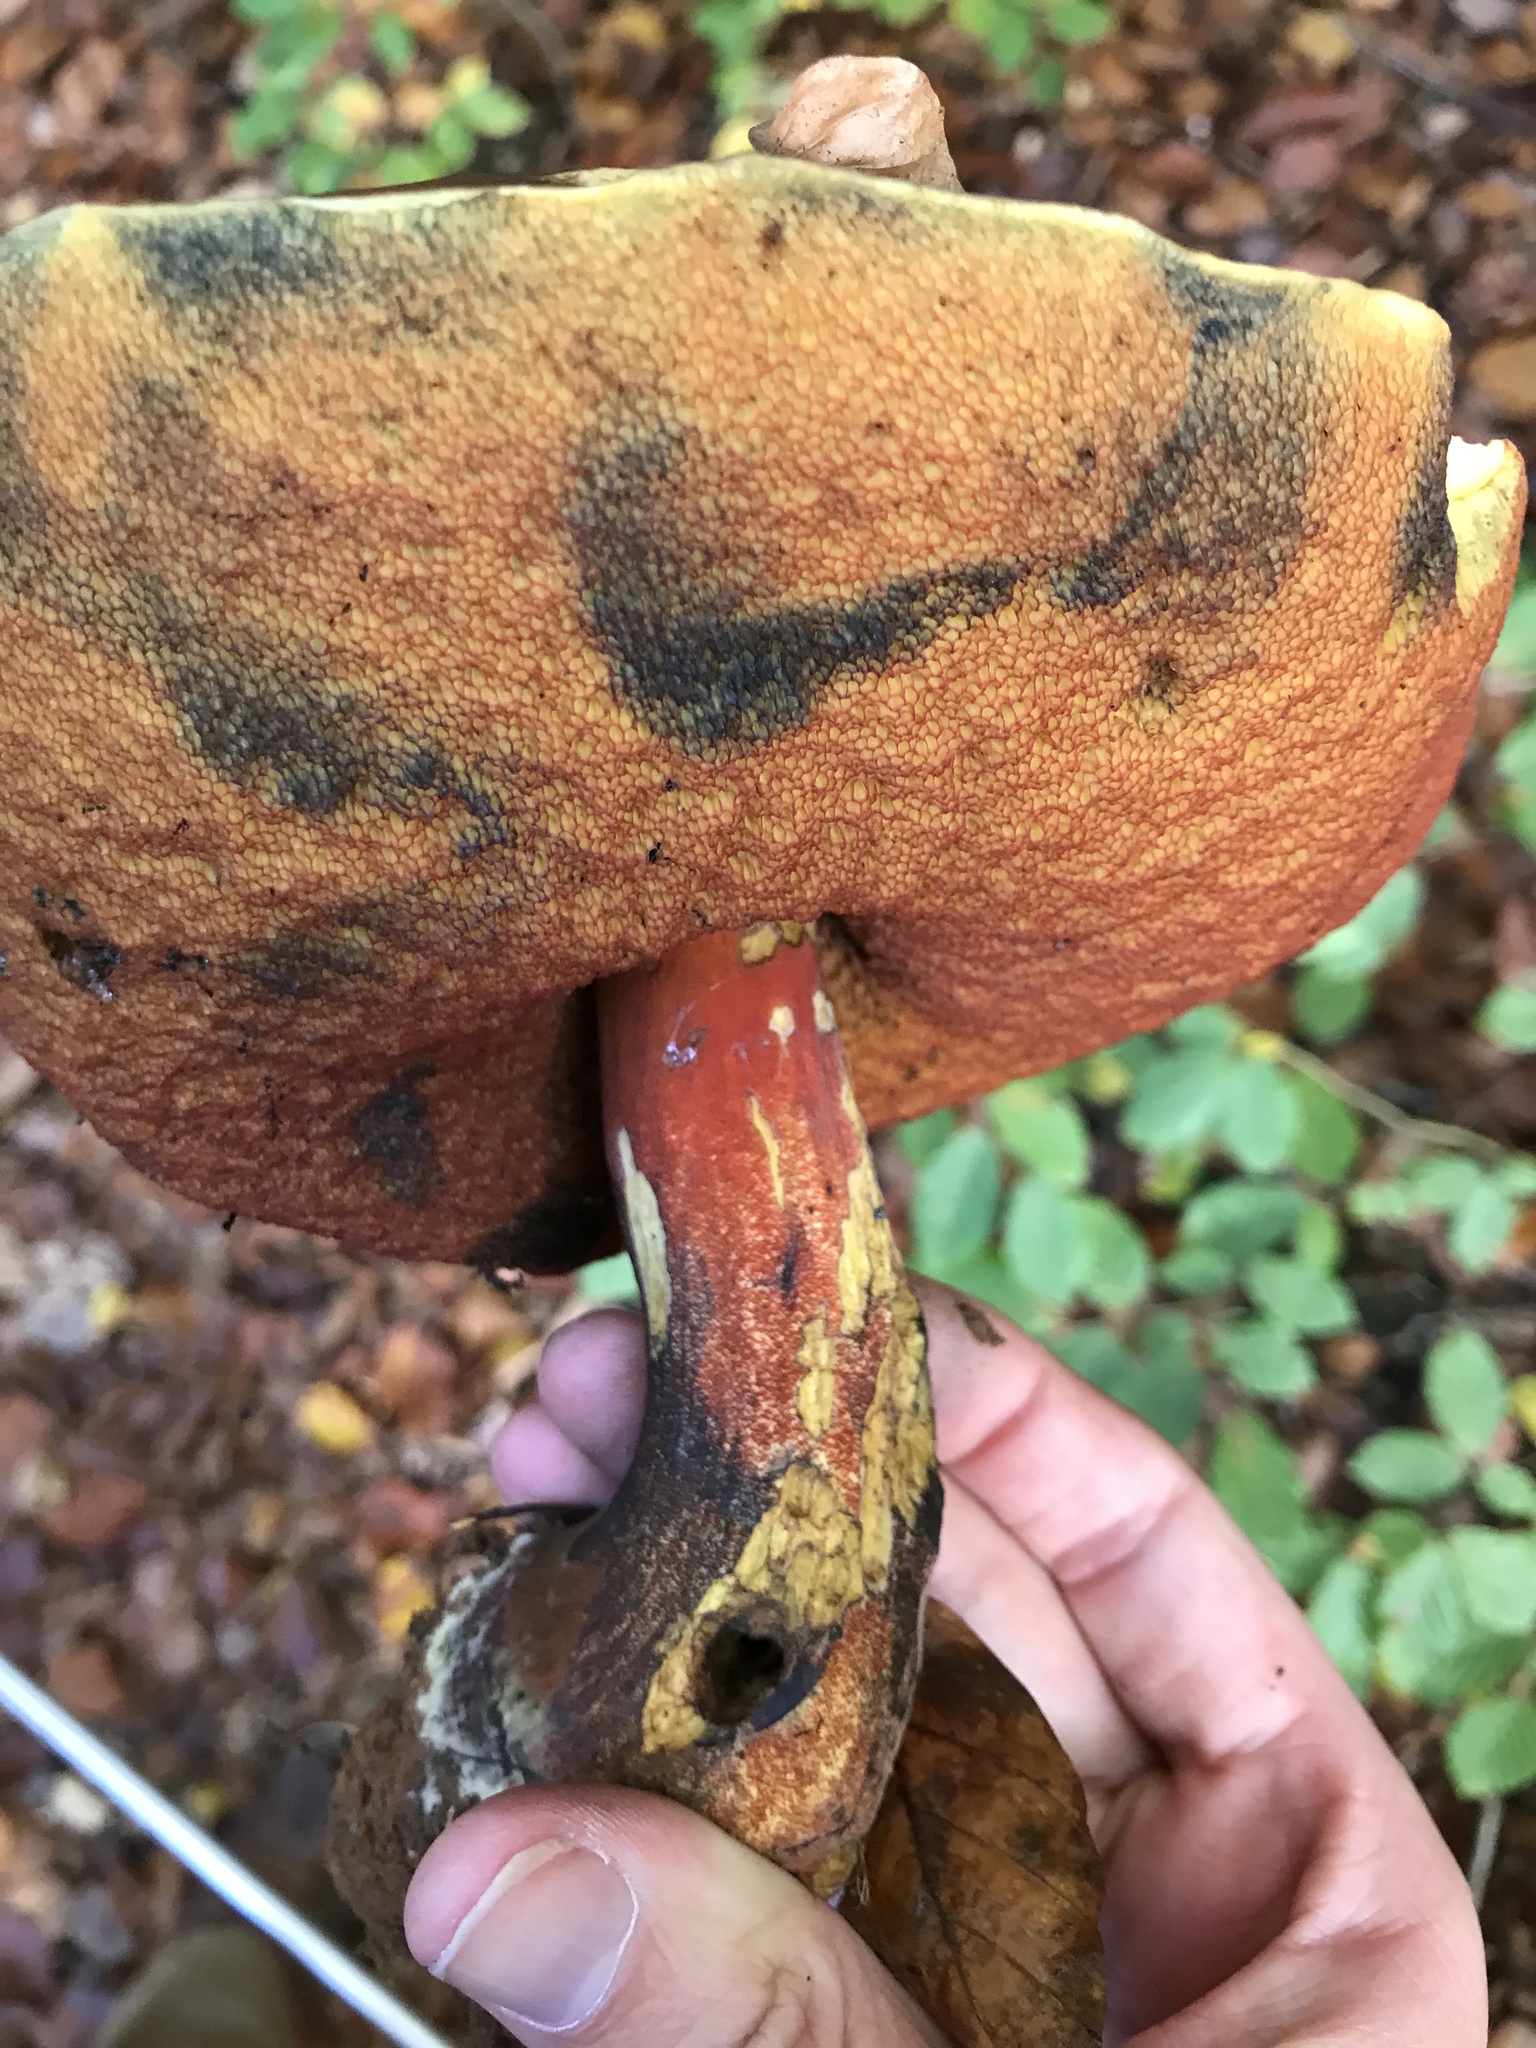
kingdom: Fungi
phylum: Basidiomycota
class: Agaricomycetes
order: Boletales
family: Boletaceae
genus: Neoboletus
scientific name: Neoboletus luridiformis
